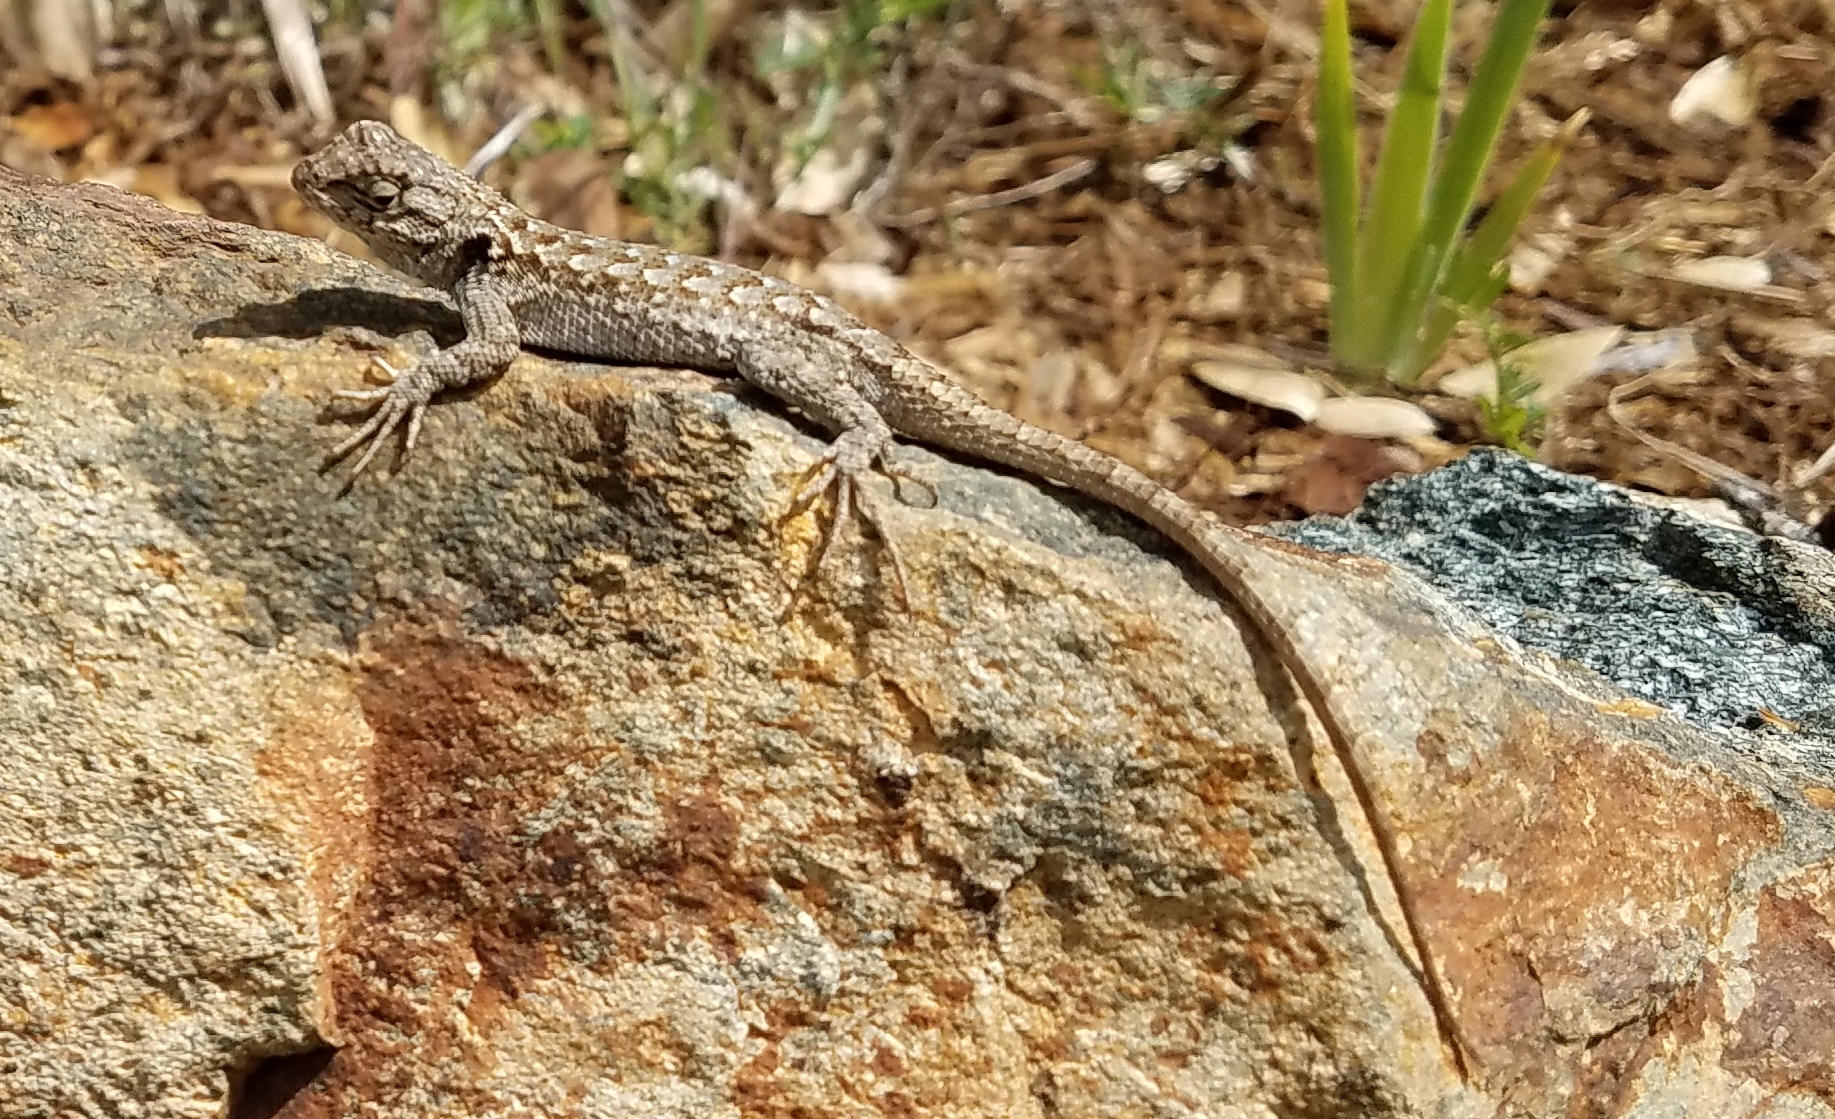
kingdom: Animalia
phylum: Chordata
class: Squamata
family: Phrynosomatidae
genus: Sceloporus
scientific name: Sceloporus occidentalis
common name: Western fence lizard
